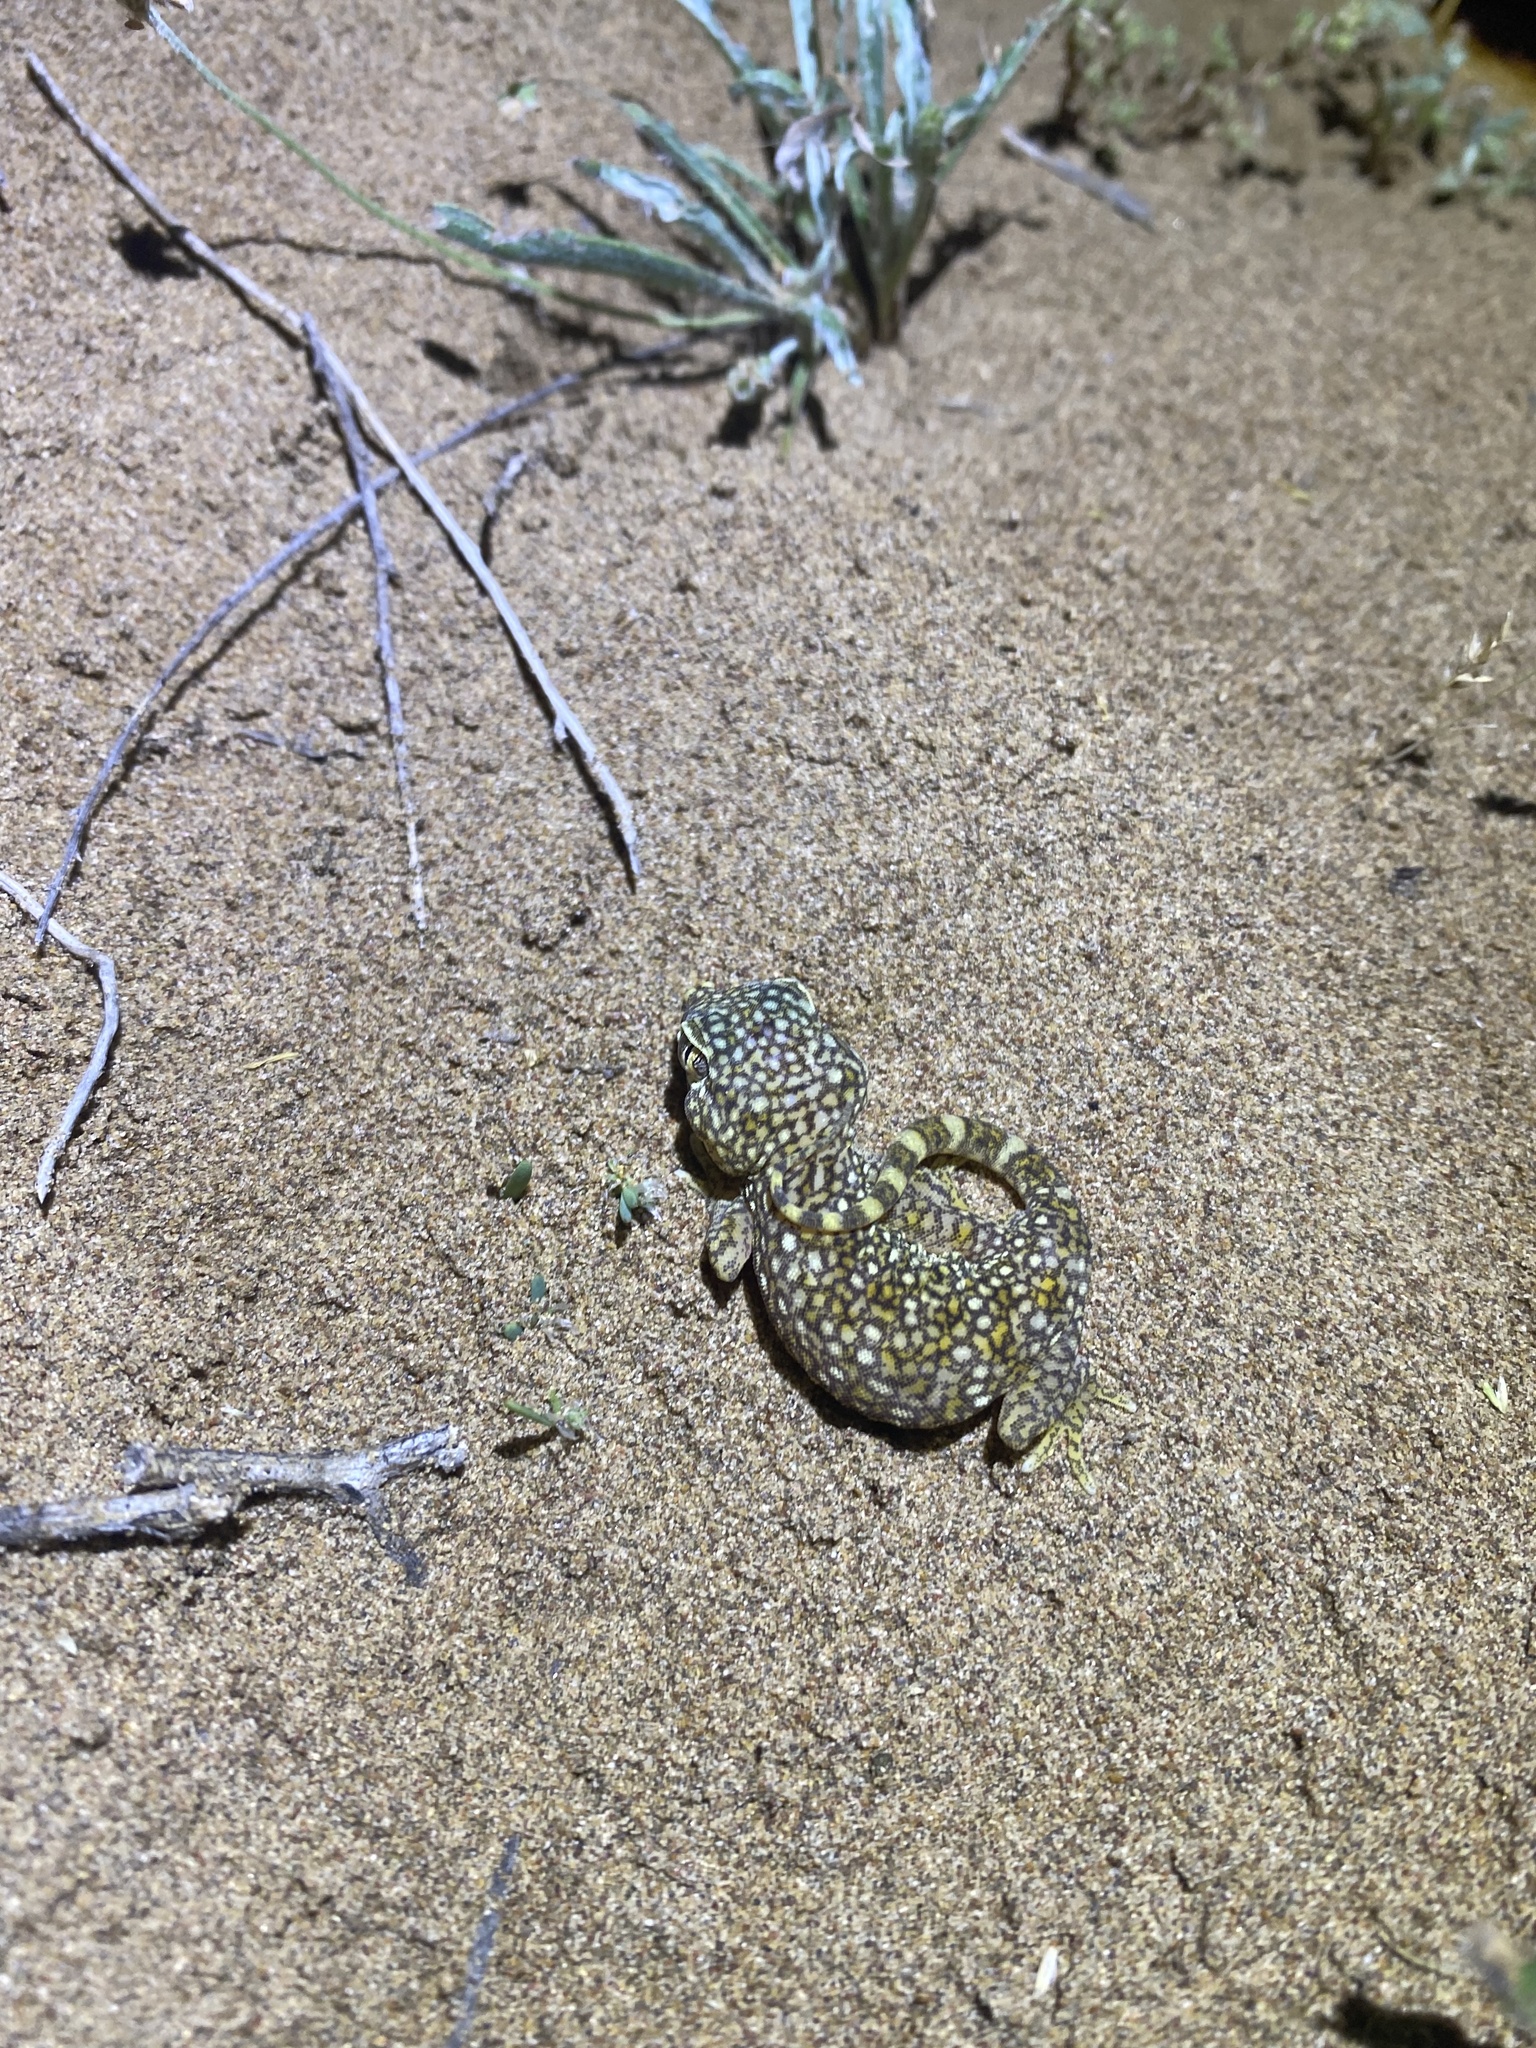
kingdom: Animalia
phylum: Chordata
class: Squamata
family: Gekkonidae
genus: Stenodactylus
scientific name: Stenodactylus doriae
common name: Dune sand gecko
